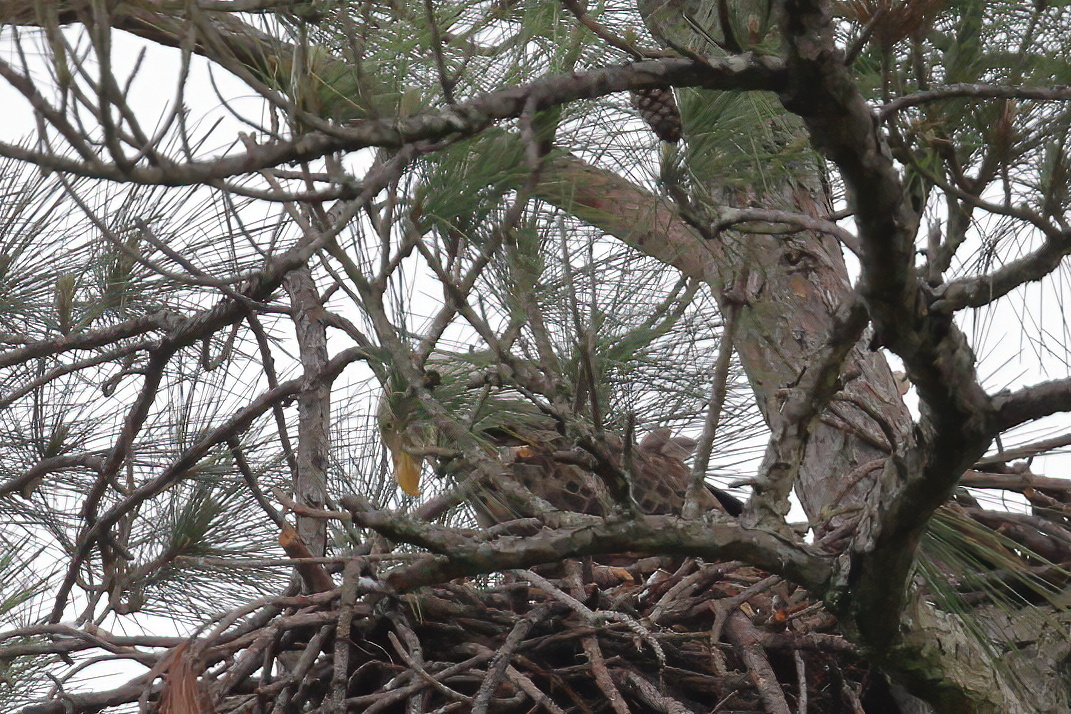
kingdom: Animalia
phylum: Chordata
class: Aves
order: Accipitriformes
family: Accipitridae
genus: Haliaeetus
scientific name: Haliaeetus leucocephalus
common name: Bald eagle
